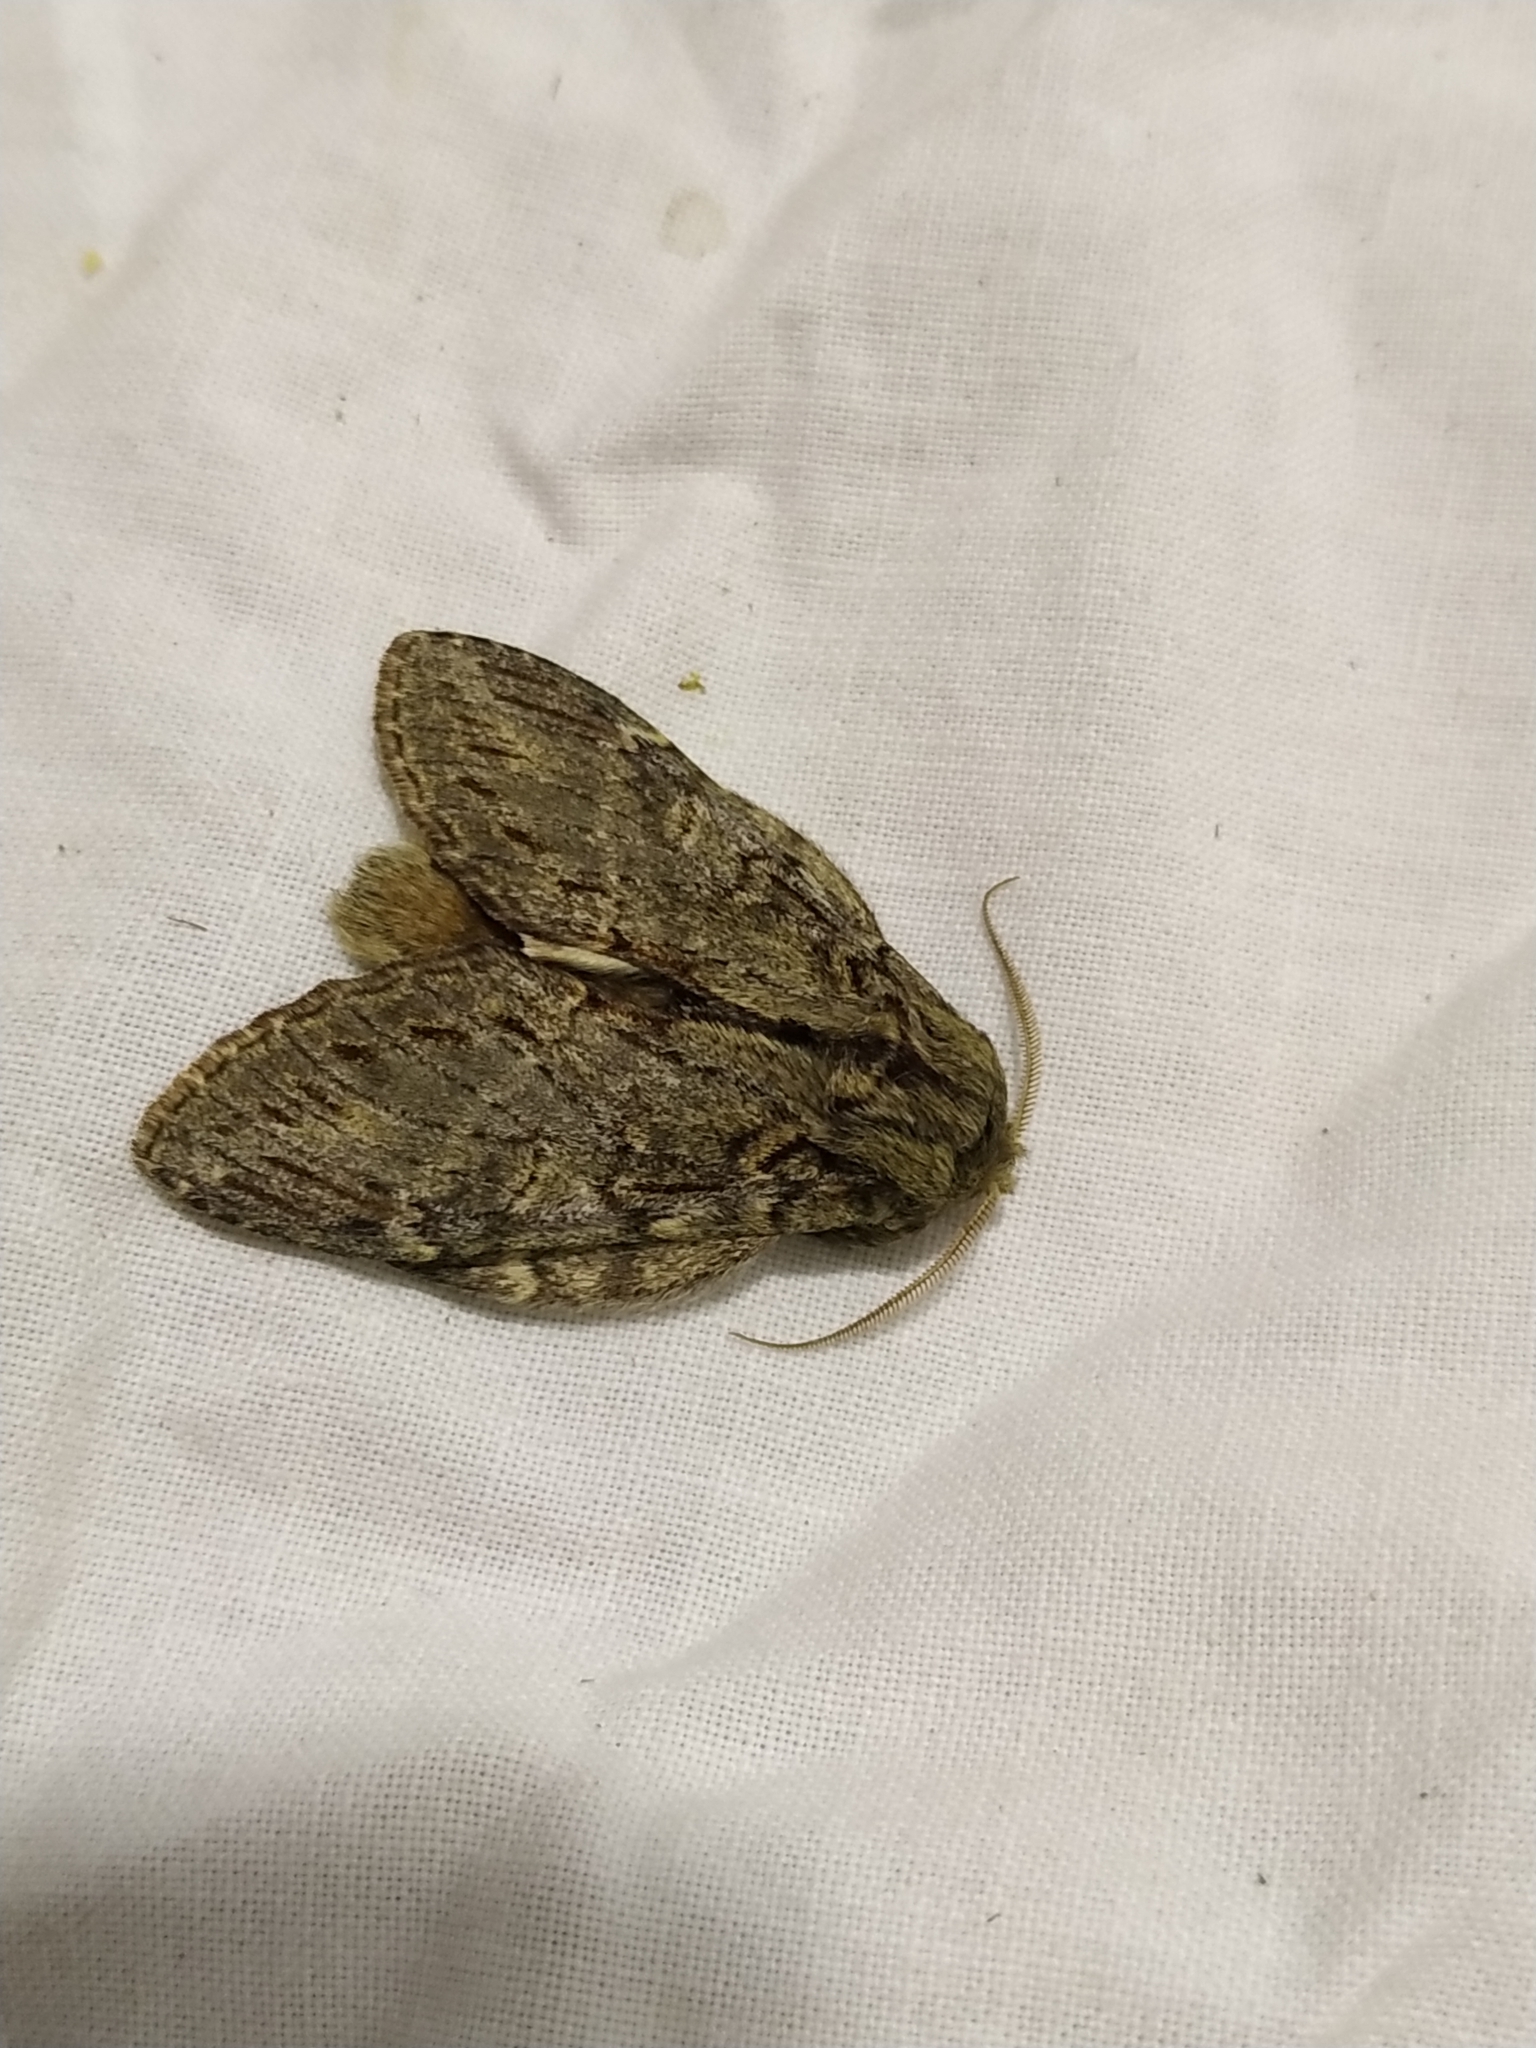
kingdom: Animalia
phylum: Arthropoda
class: Insecta
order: Lepidoptera
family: Notodontidae
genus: Peridea
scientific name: Peridea anceps
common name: Great prominent
